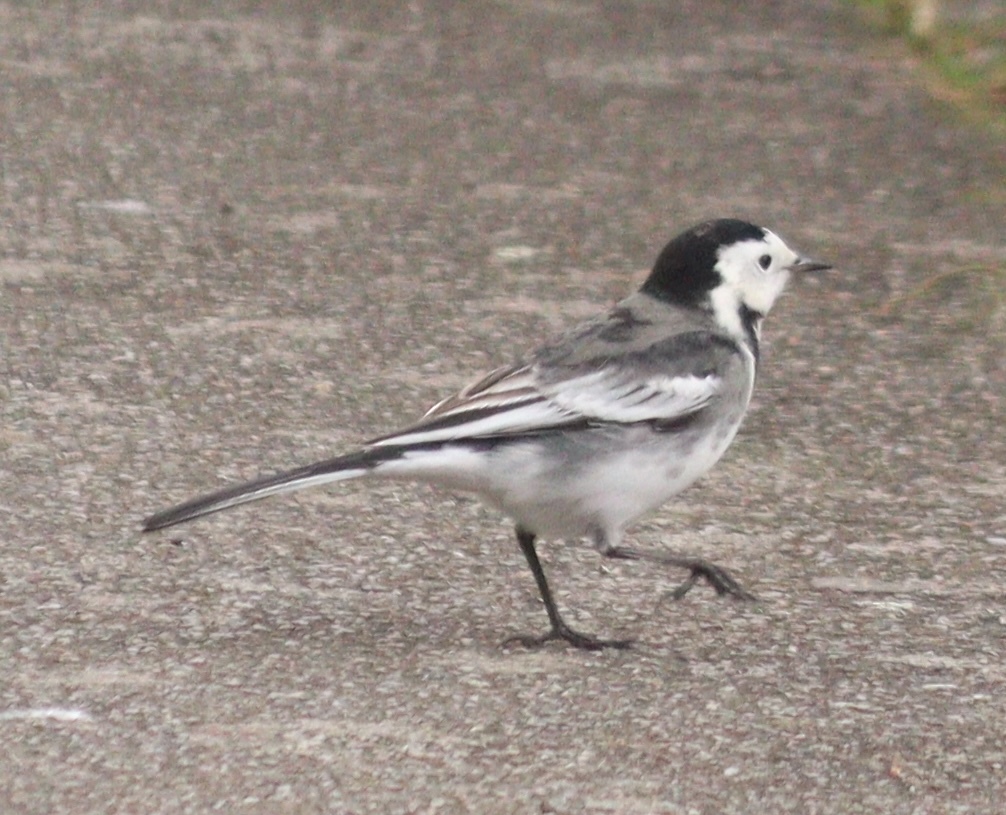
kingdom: Animalia
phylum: Chordata
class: Aves
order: Passeriformes
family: Motacillidae
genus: Motacilla
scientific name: Motacilla alba
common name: White wagtail
